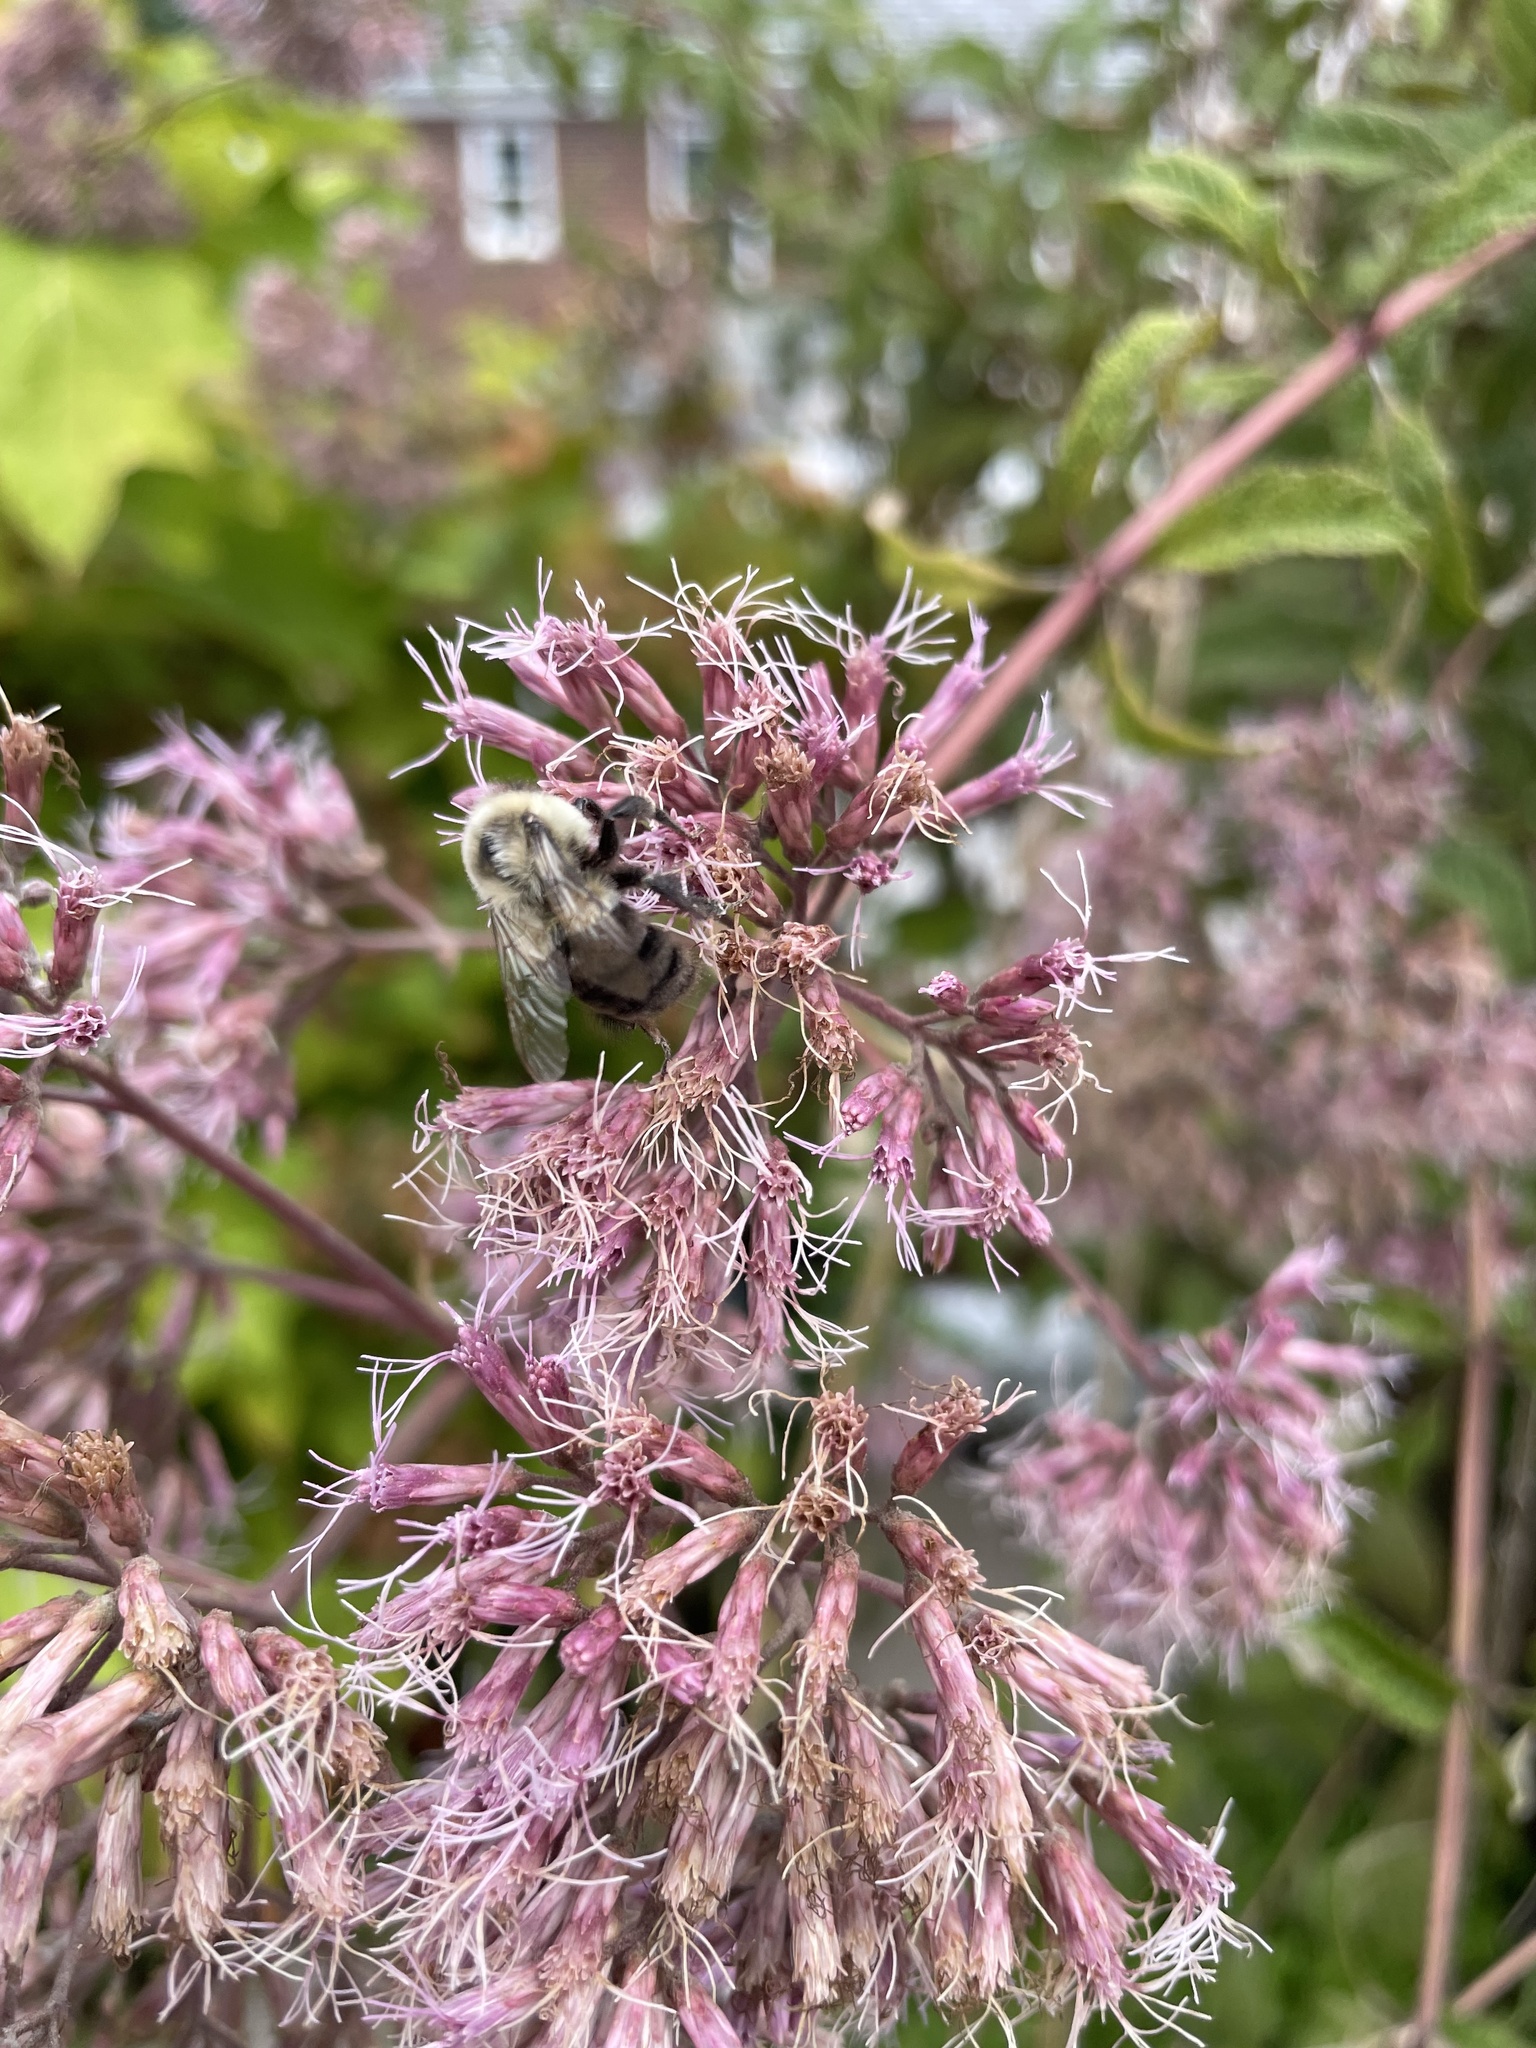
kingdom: Animalia
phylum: Arthropoda
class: Insecta
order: Hymenoptera
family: Apidae
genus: Bombus
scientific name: Bombus impatiens
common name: Common eastern bumble bee
